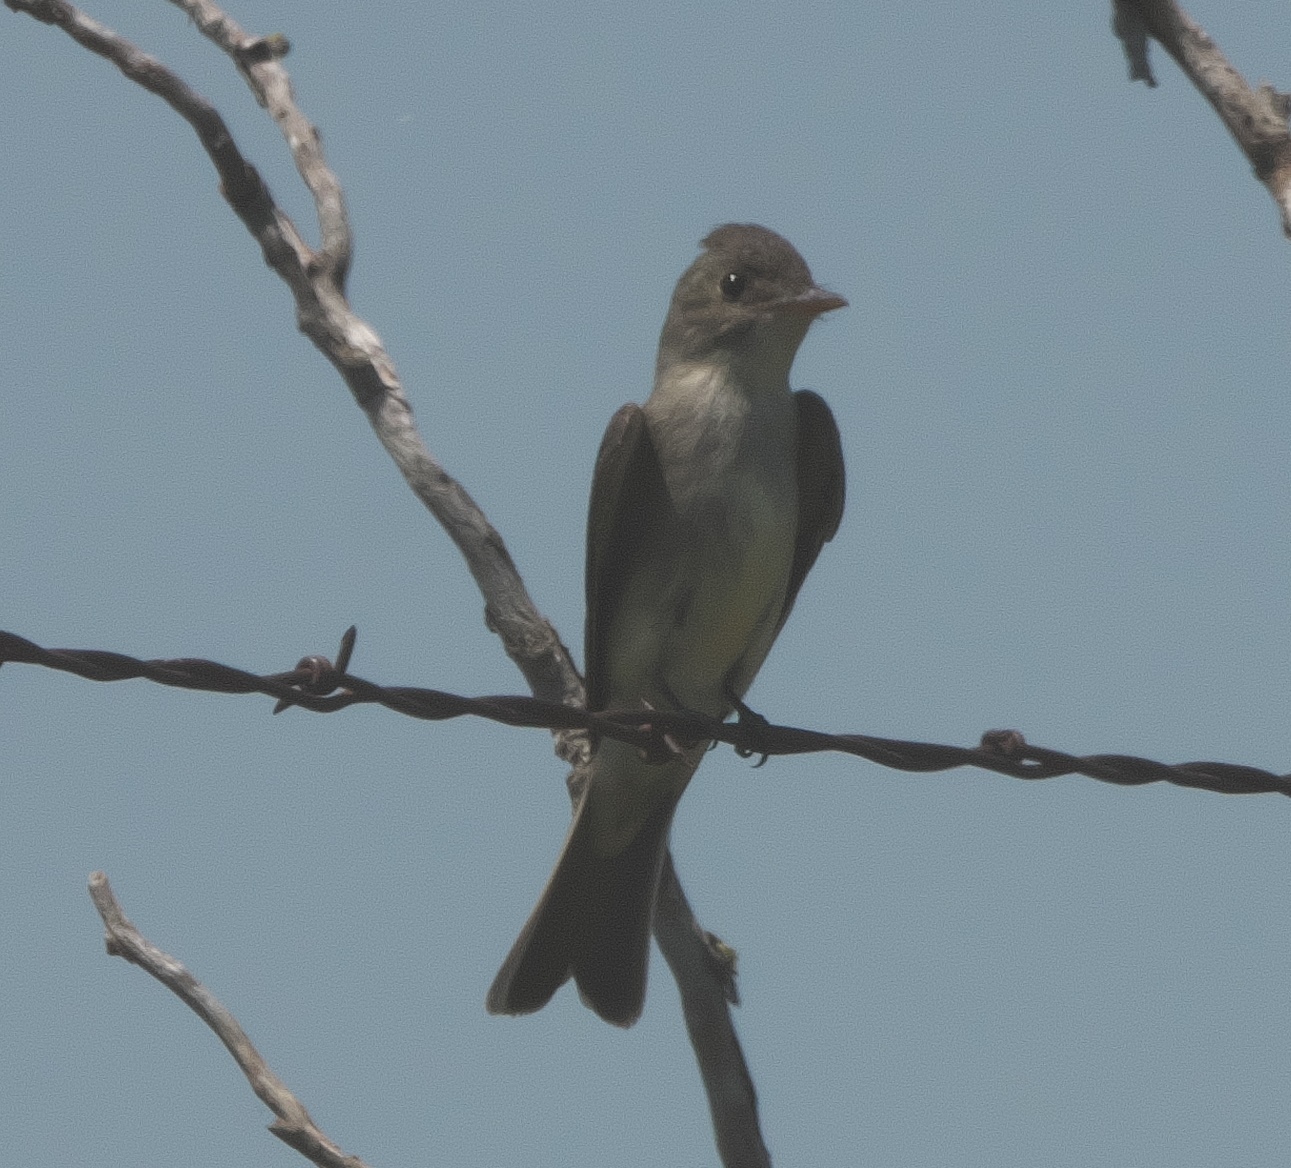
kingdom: Animalia
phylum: Chordata
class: Aves
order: Passeriformes
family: Tyrannidae
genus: Contopus
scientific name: Contopus virens
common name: Eastern wood-pewee
